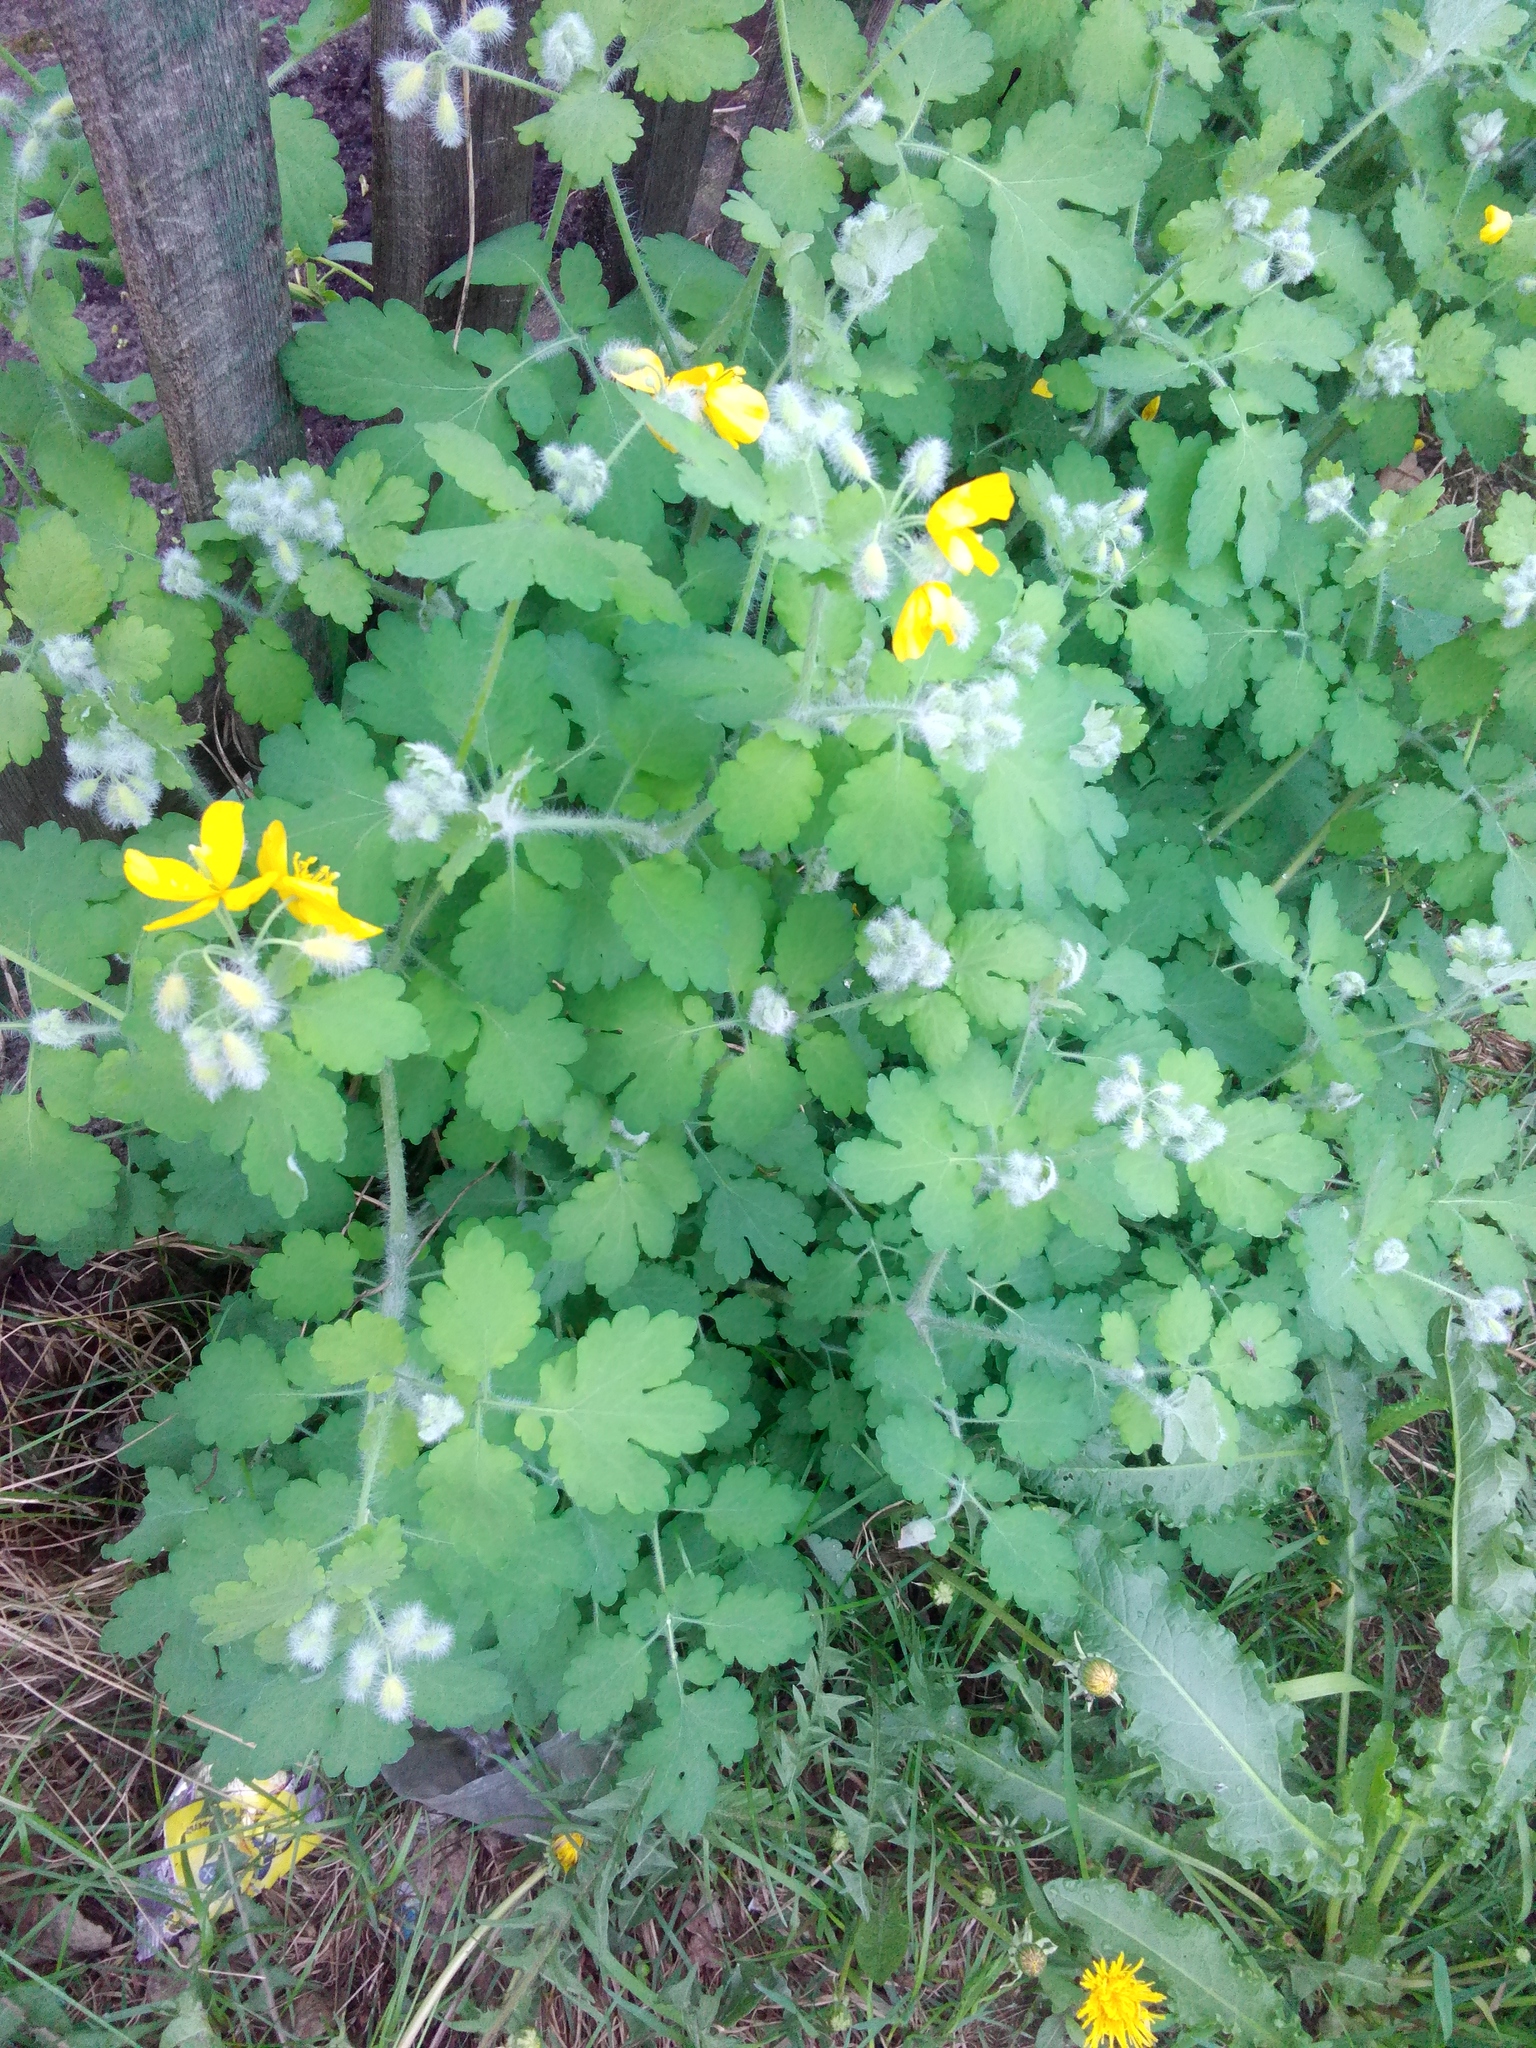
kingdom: Plantae
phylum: Tracheophyta
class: Magnoliopsida
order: Ranunculales
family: Papaveraceae
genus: Chelidonium
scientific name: Chelidonium majus
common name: Greater celandine
